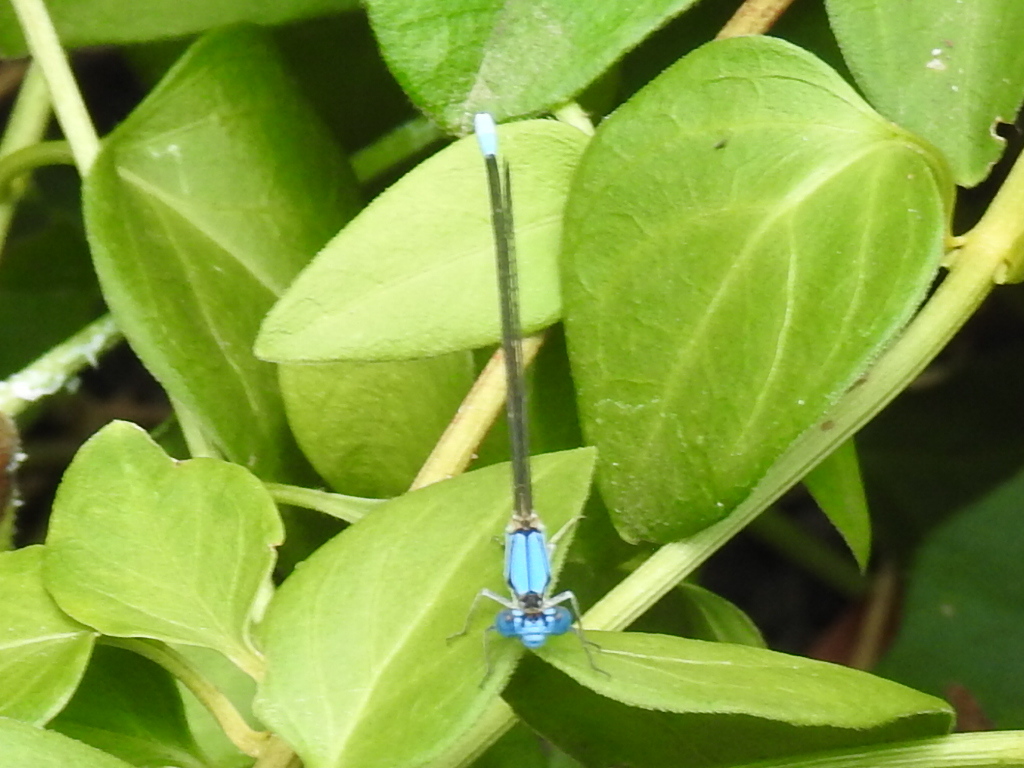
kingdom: Animalia
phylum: Arthropoda
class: Insecta
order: Odonata
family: Coenagrionidae
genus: Argia
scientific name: Argia apicalis
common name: Blue-fronted dancer
